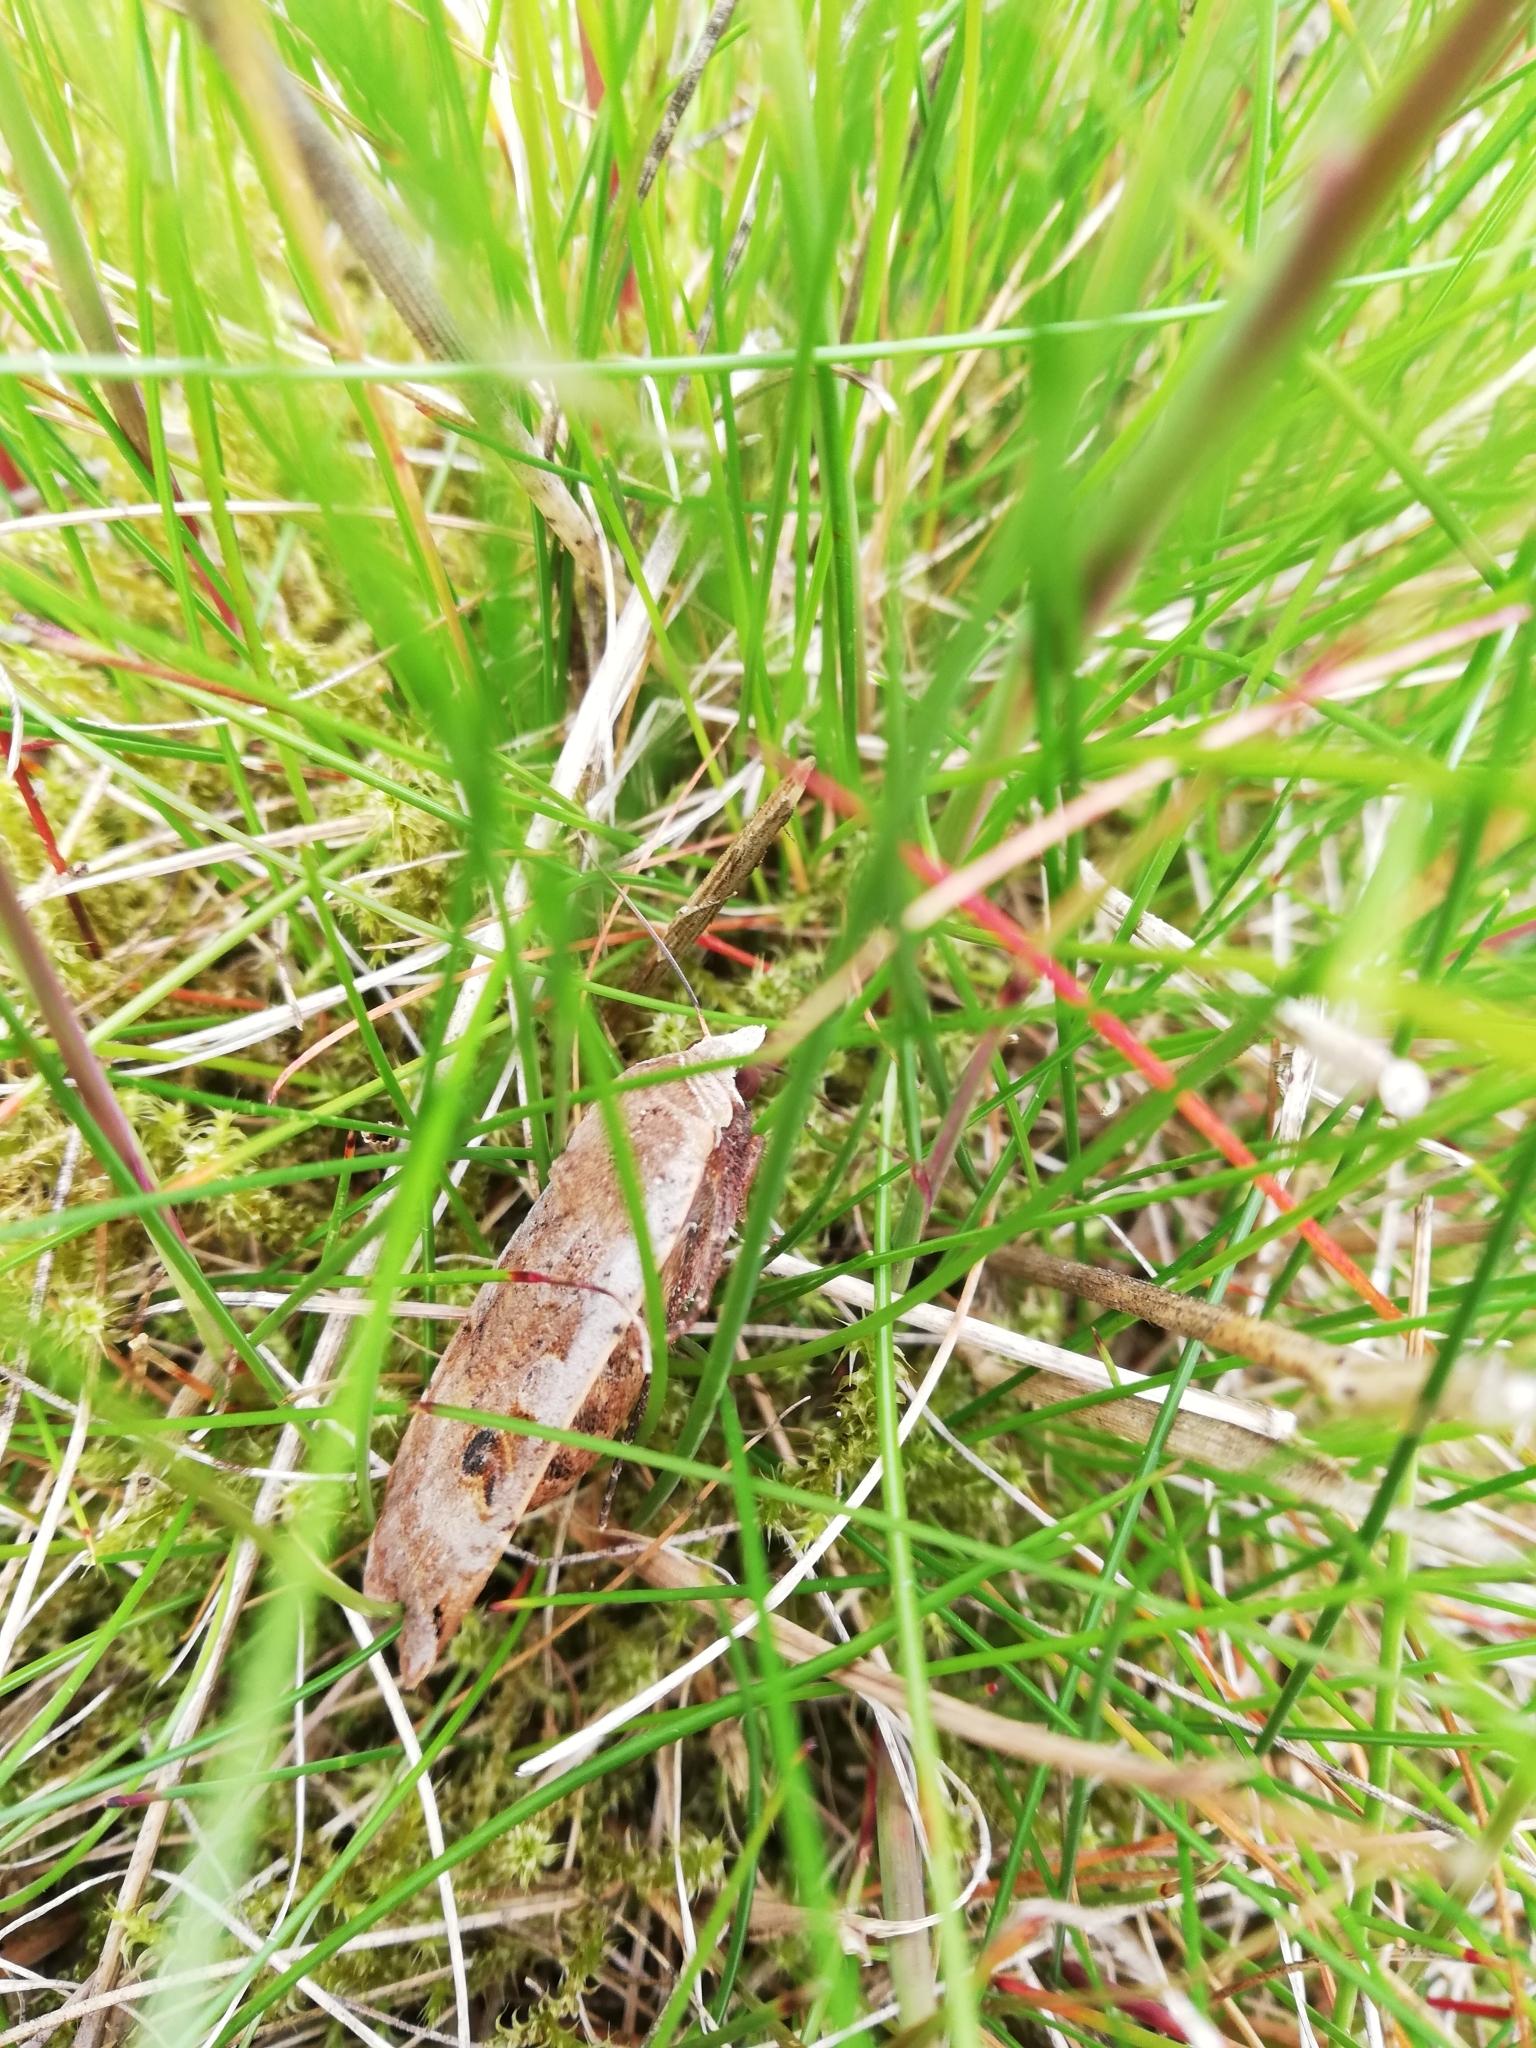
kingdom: Animalia
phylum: Arthropoda
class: Insecta
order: Lepidoptera
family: Noctuidae
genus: Noctua
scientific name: Noctua pronuba
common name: Large yellow underwing
